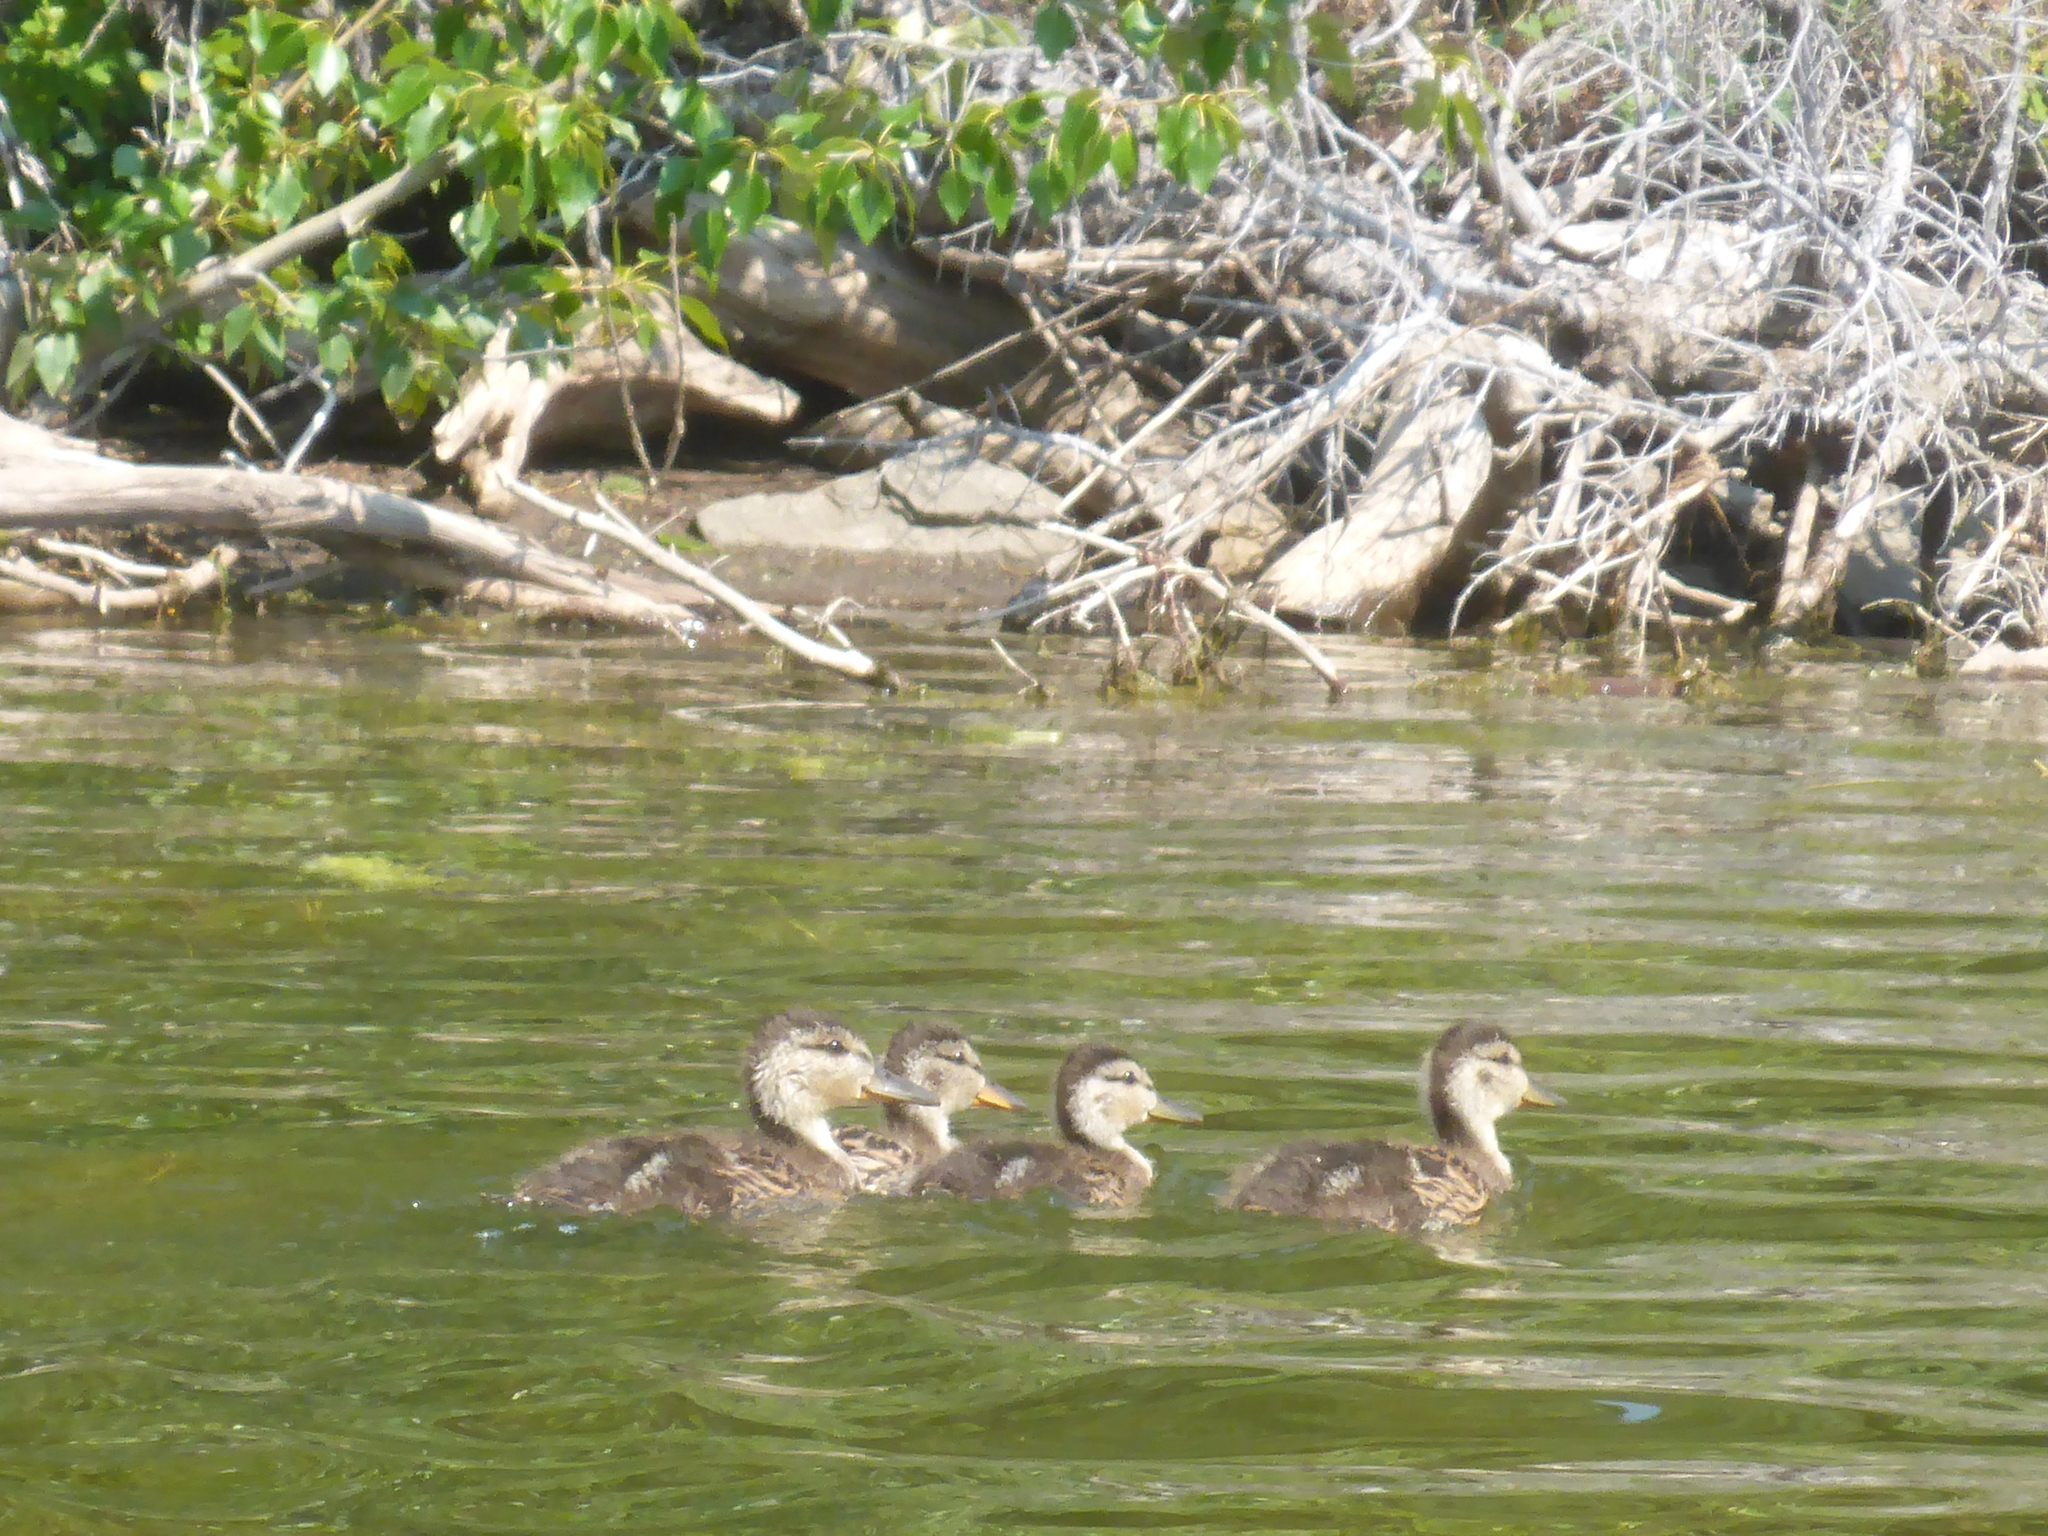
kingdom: Animalia
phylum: Chordata
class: Aves
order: Anseriformes
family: Anatidae
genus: Anas
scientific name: Anas platyrhynchos
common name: Mallard
